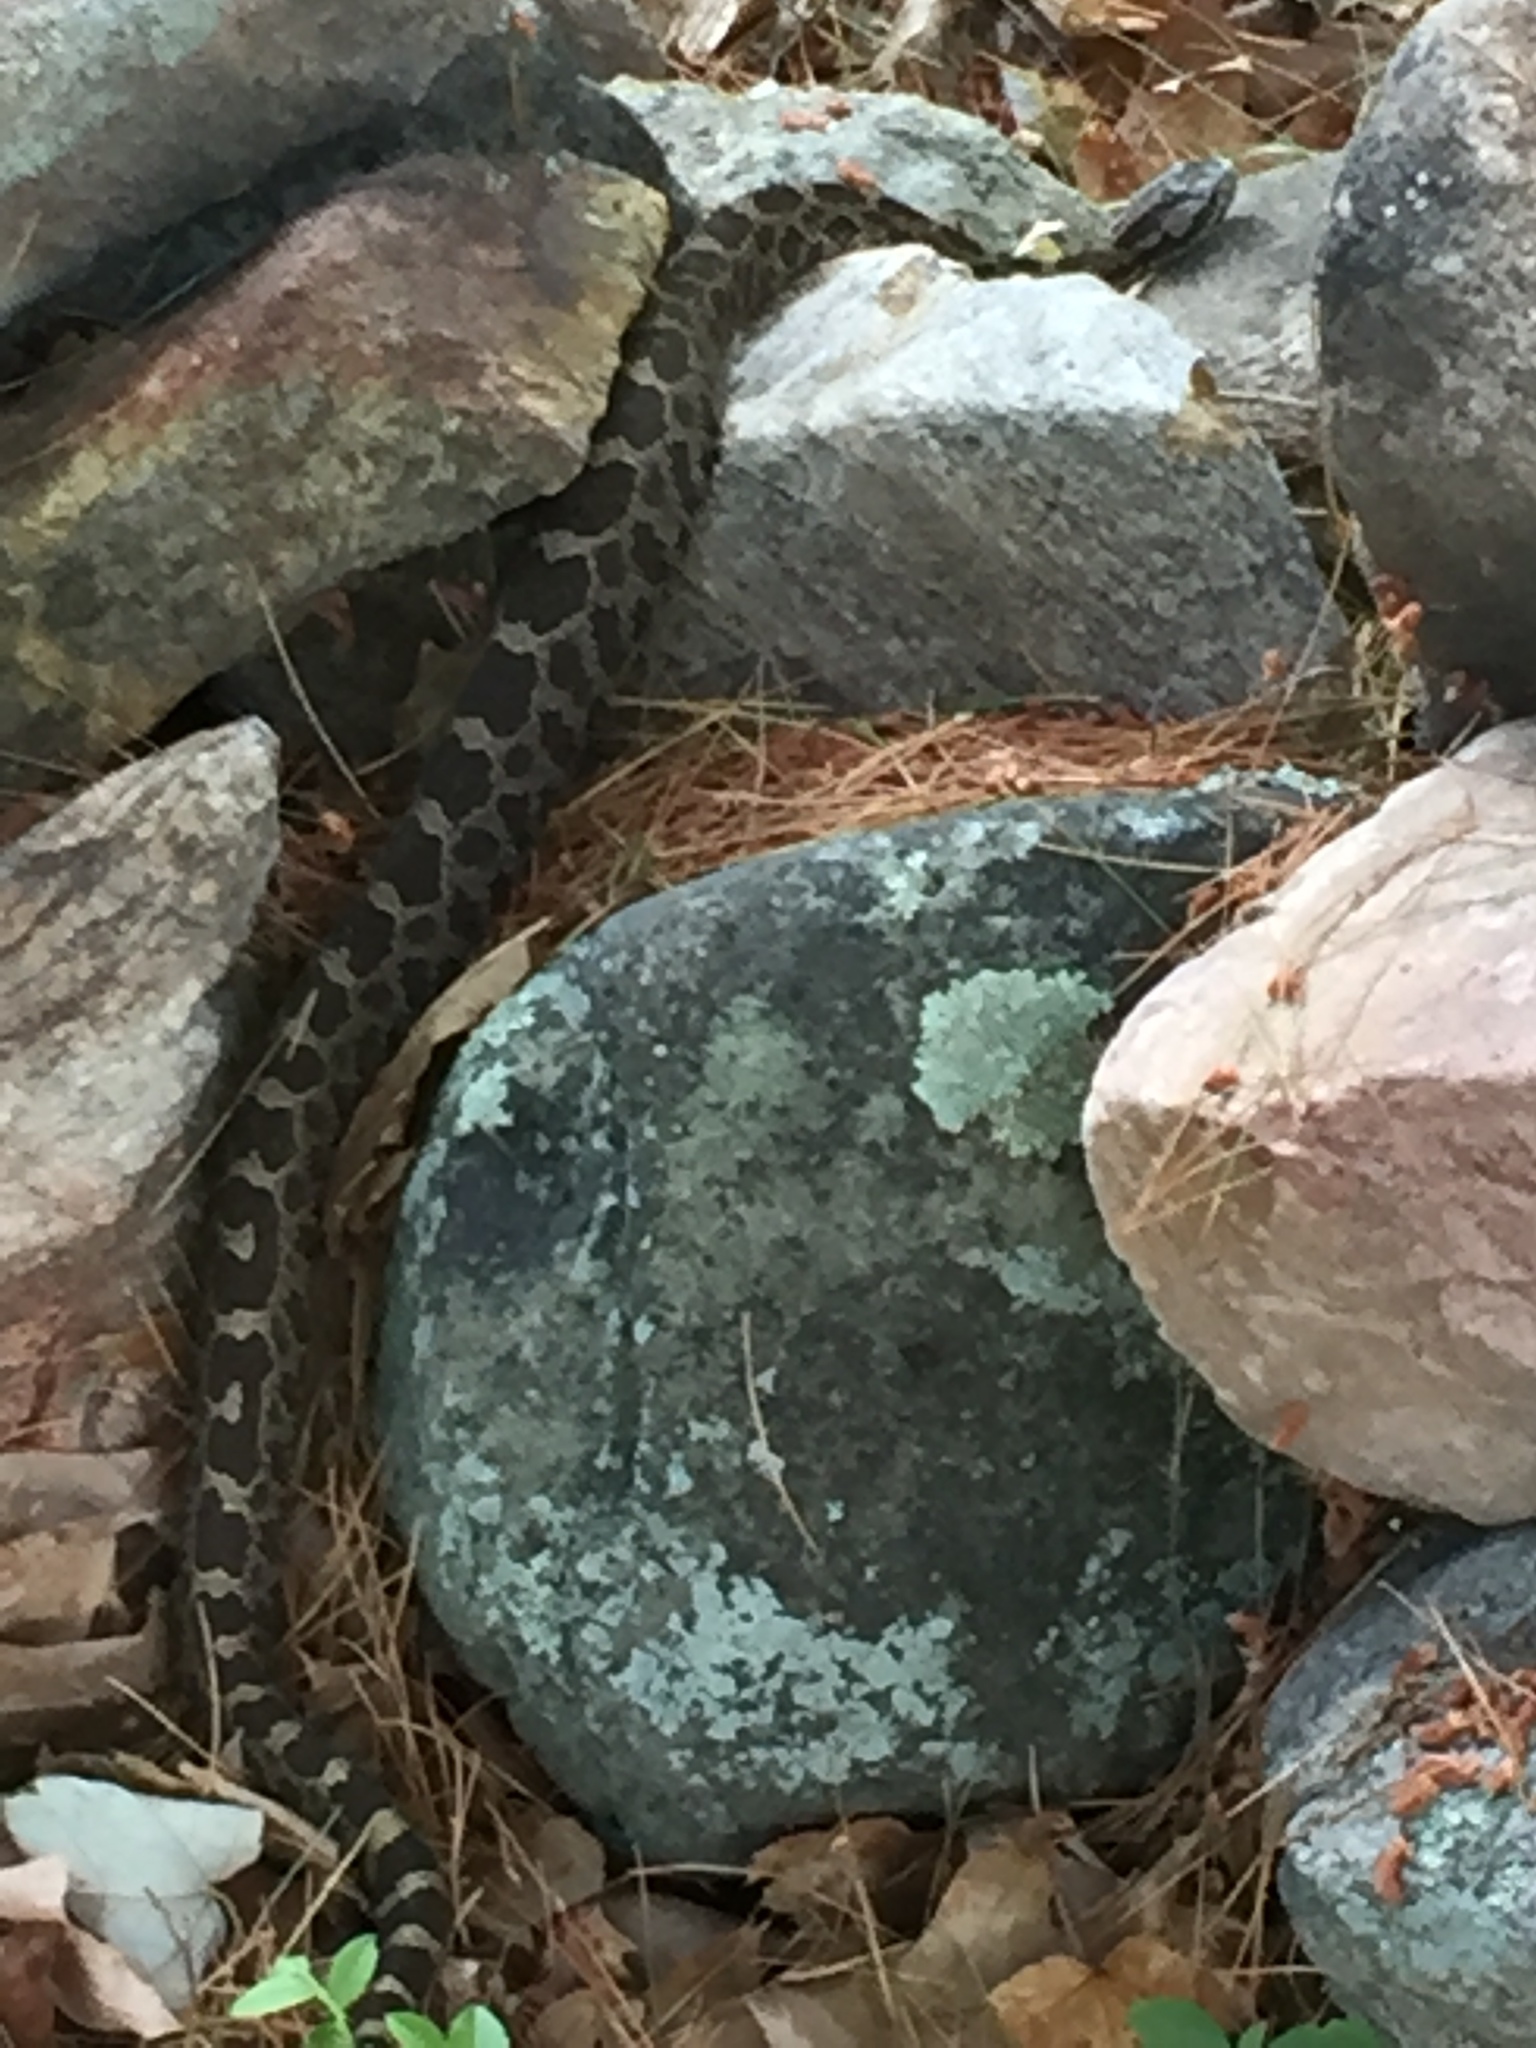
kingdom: Animalia
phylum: Chordata
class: Squamata
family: Viperidae
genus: Sistrurus
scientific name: Sistrurus catenatus
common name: Massasauga
